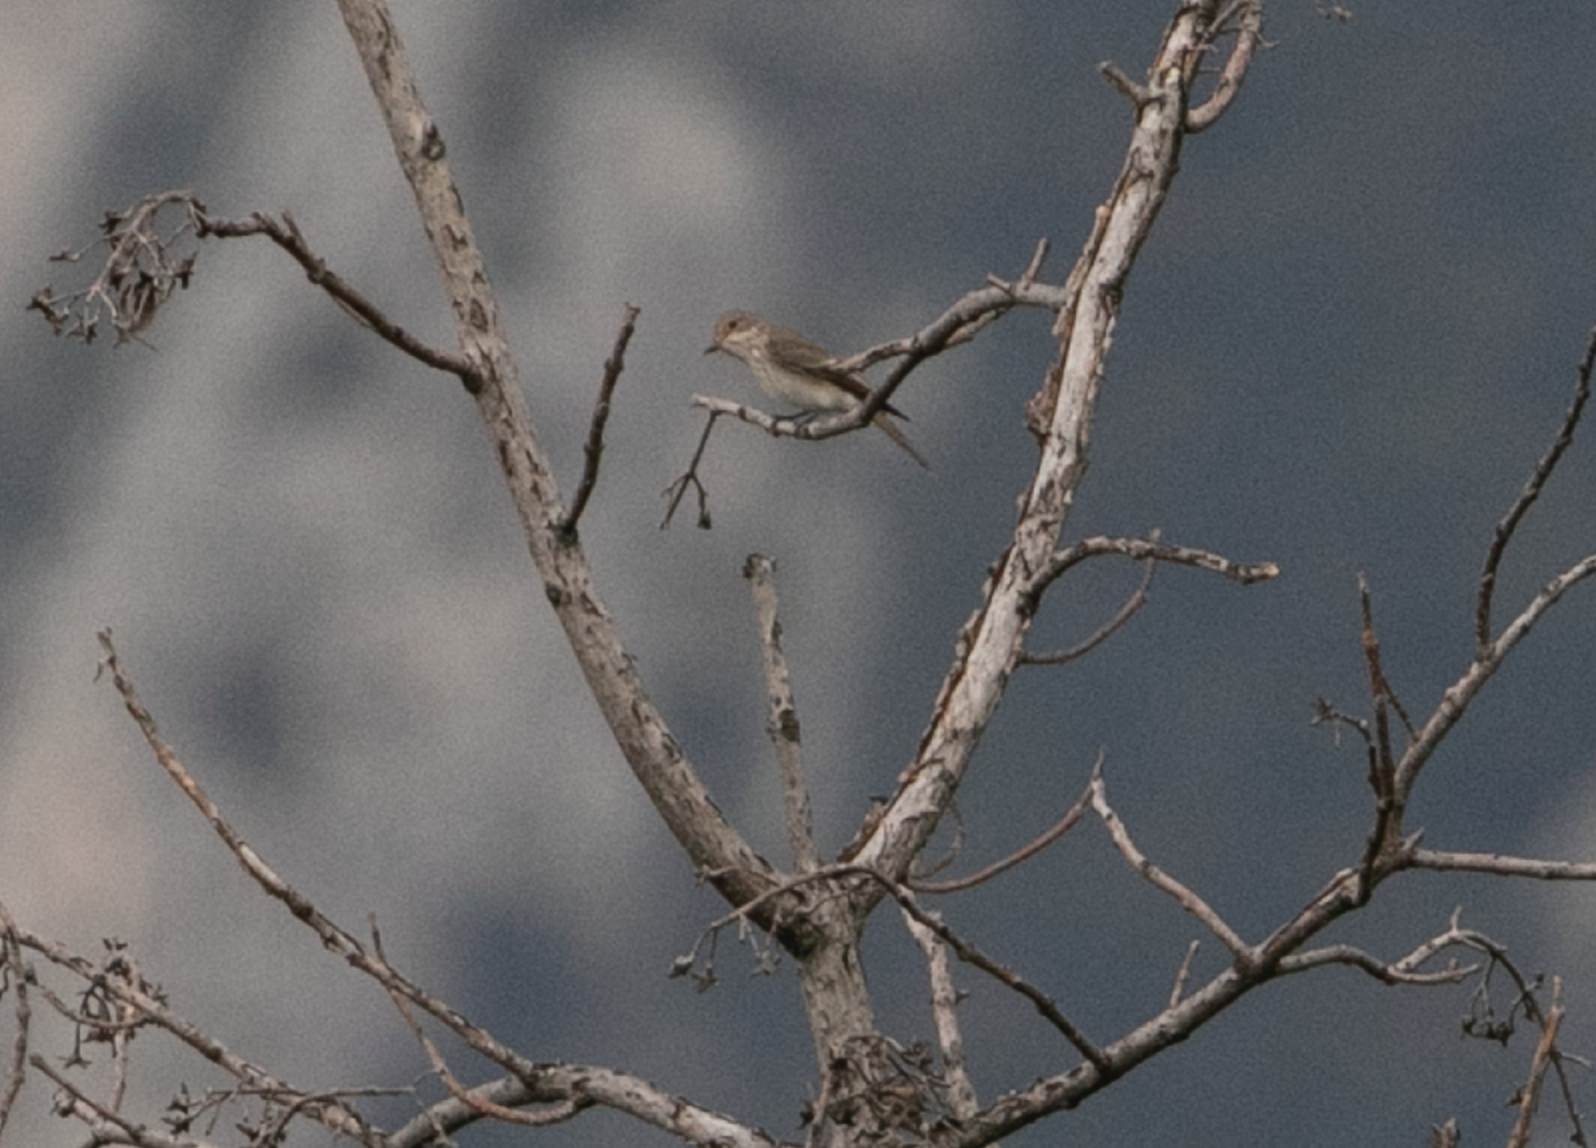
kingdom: Animalia
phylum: Chordata
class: Aves
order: Passeriformes
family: Muscicapidae
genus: Muscicapa
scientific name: Muscicapa striata
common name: Spotted flycatcher
